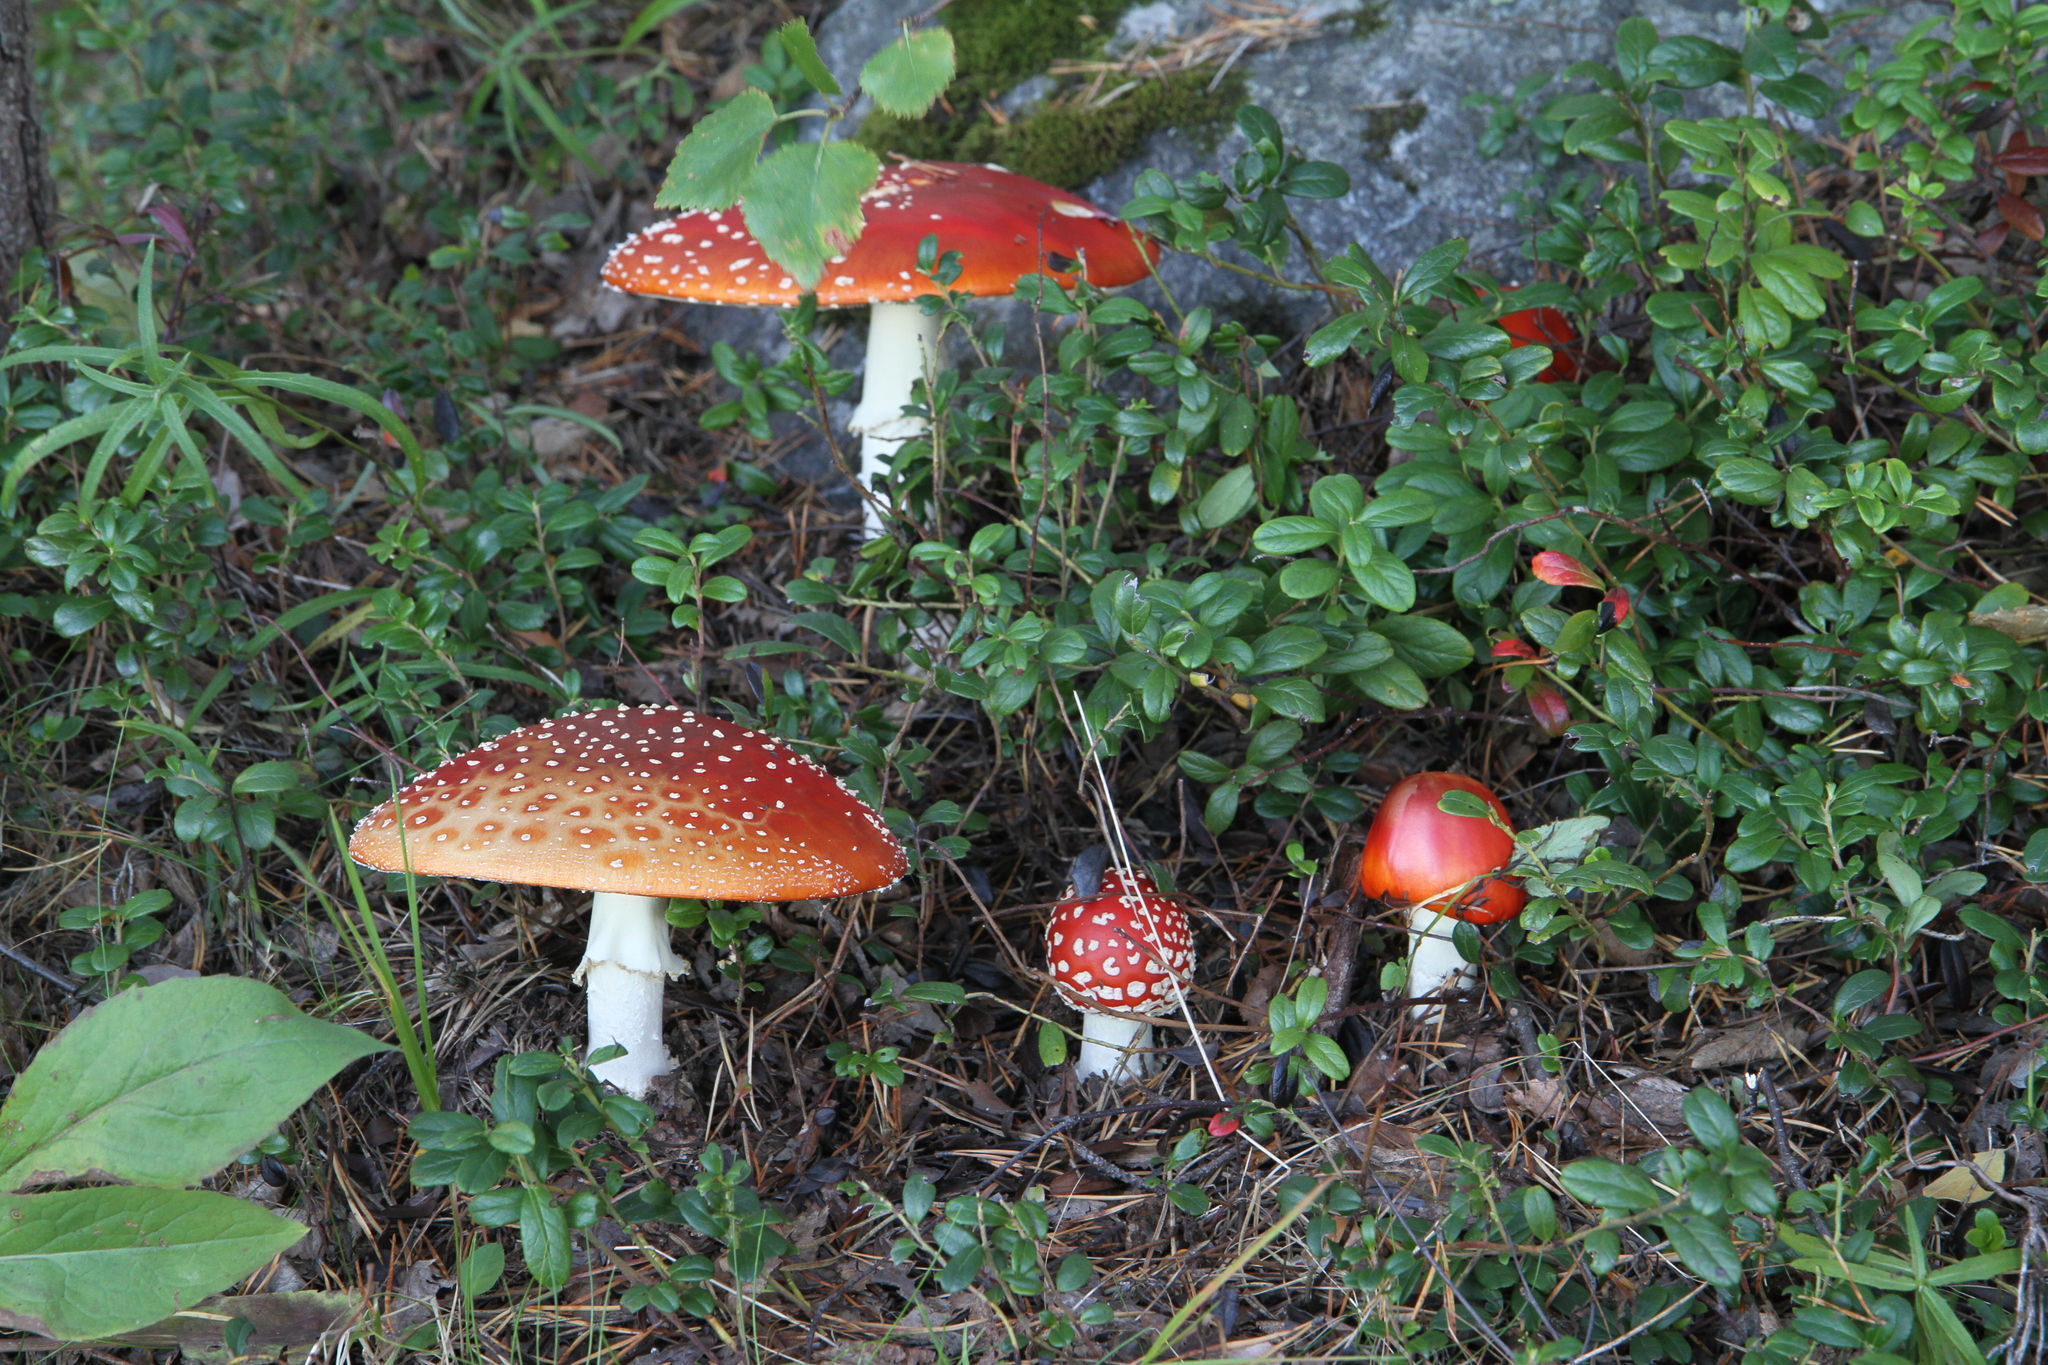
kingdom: Fungi
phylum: Basidiomycota
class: Agaricomycetes
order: Agaricales
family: Amanitaceae
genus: Amanita
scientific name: Amanita muscaria
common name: Fly agaric
